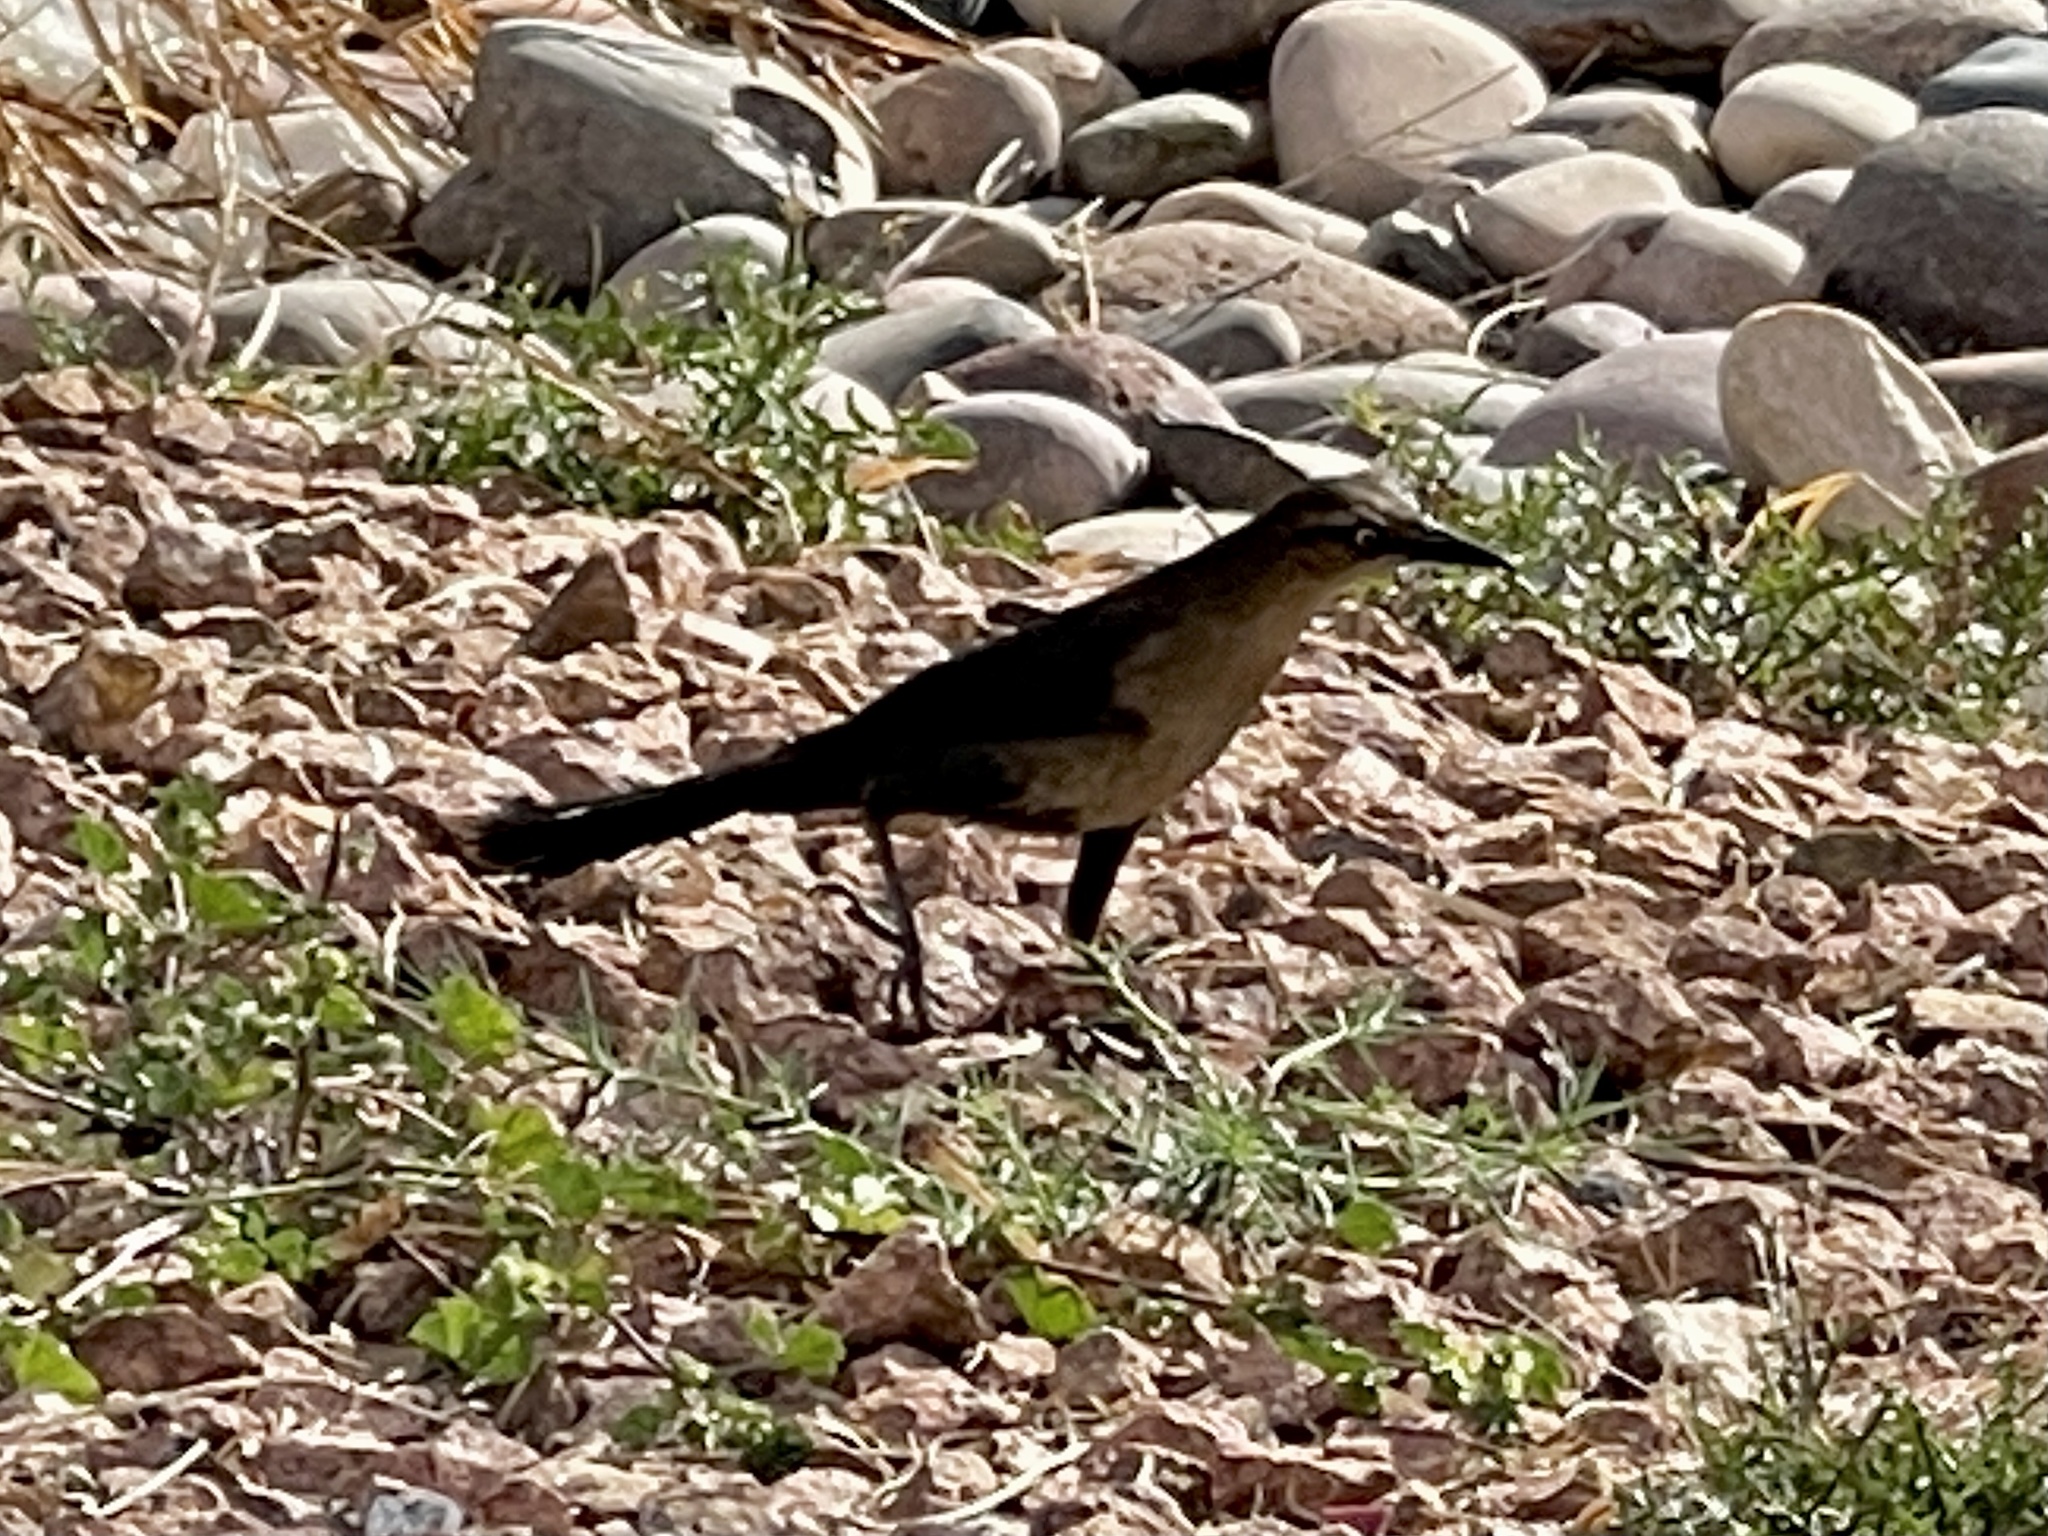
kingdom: Animalia
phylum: Chordata
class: Aves
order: Passeriformes
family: Icteridae
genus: Quiscalus
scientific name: Quiscalus mexicanus
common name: Great-tailed grackle
